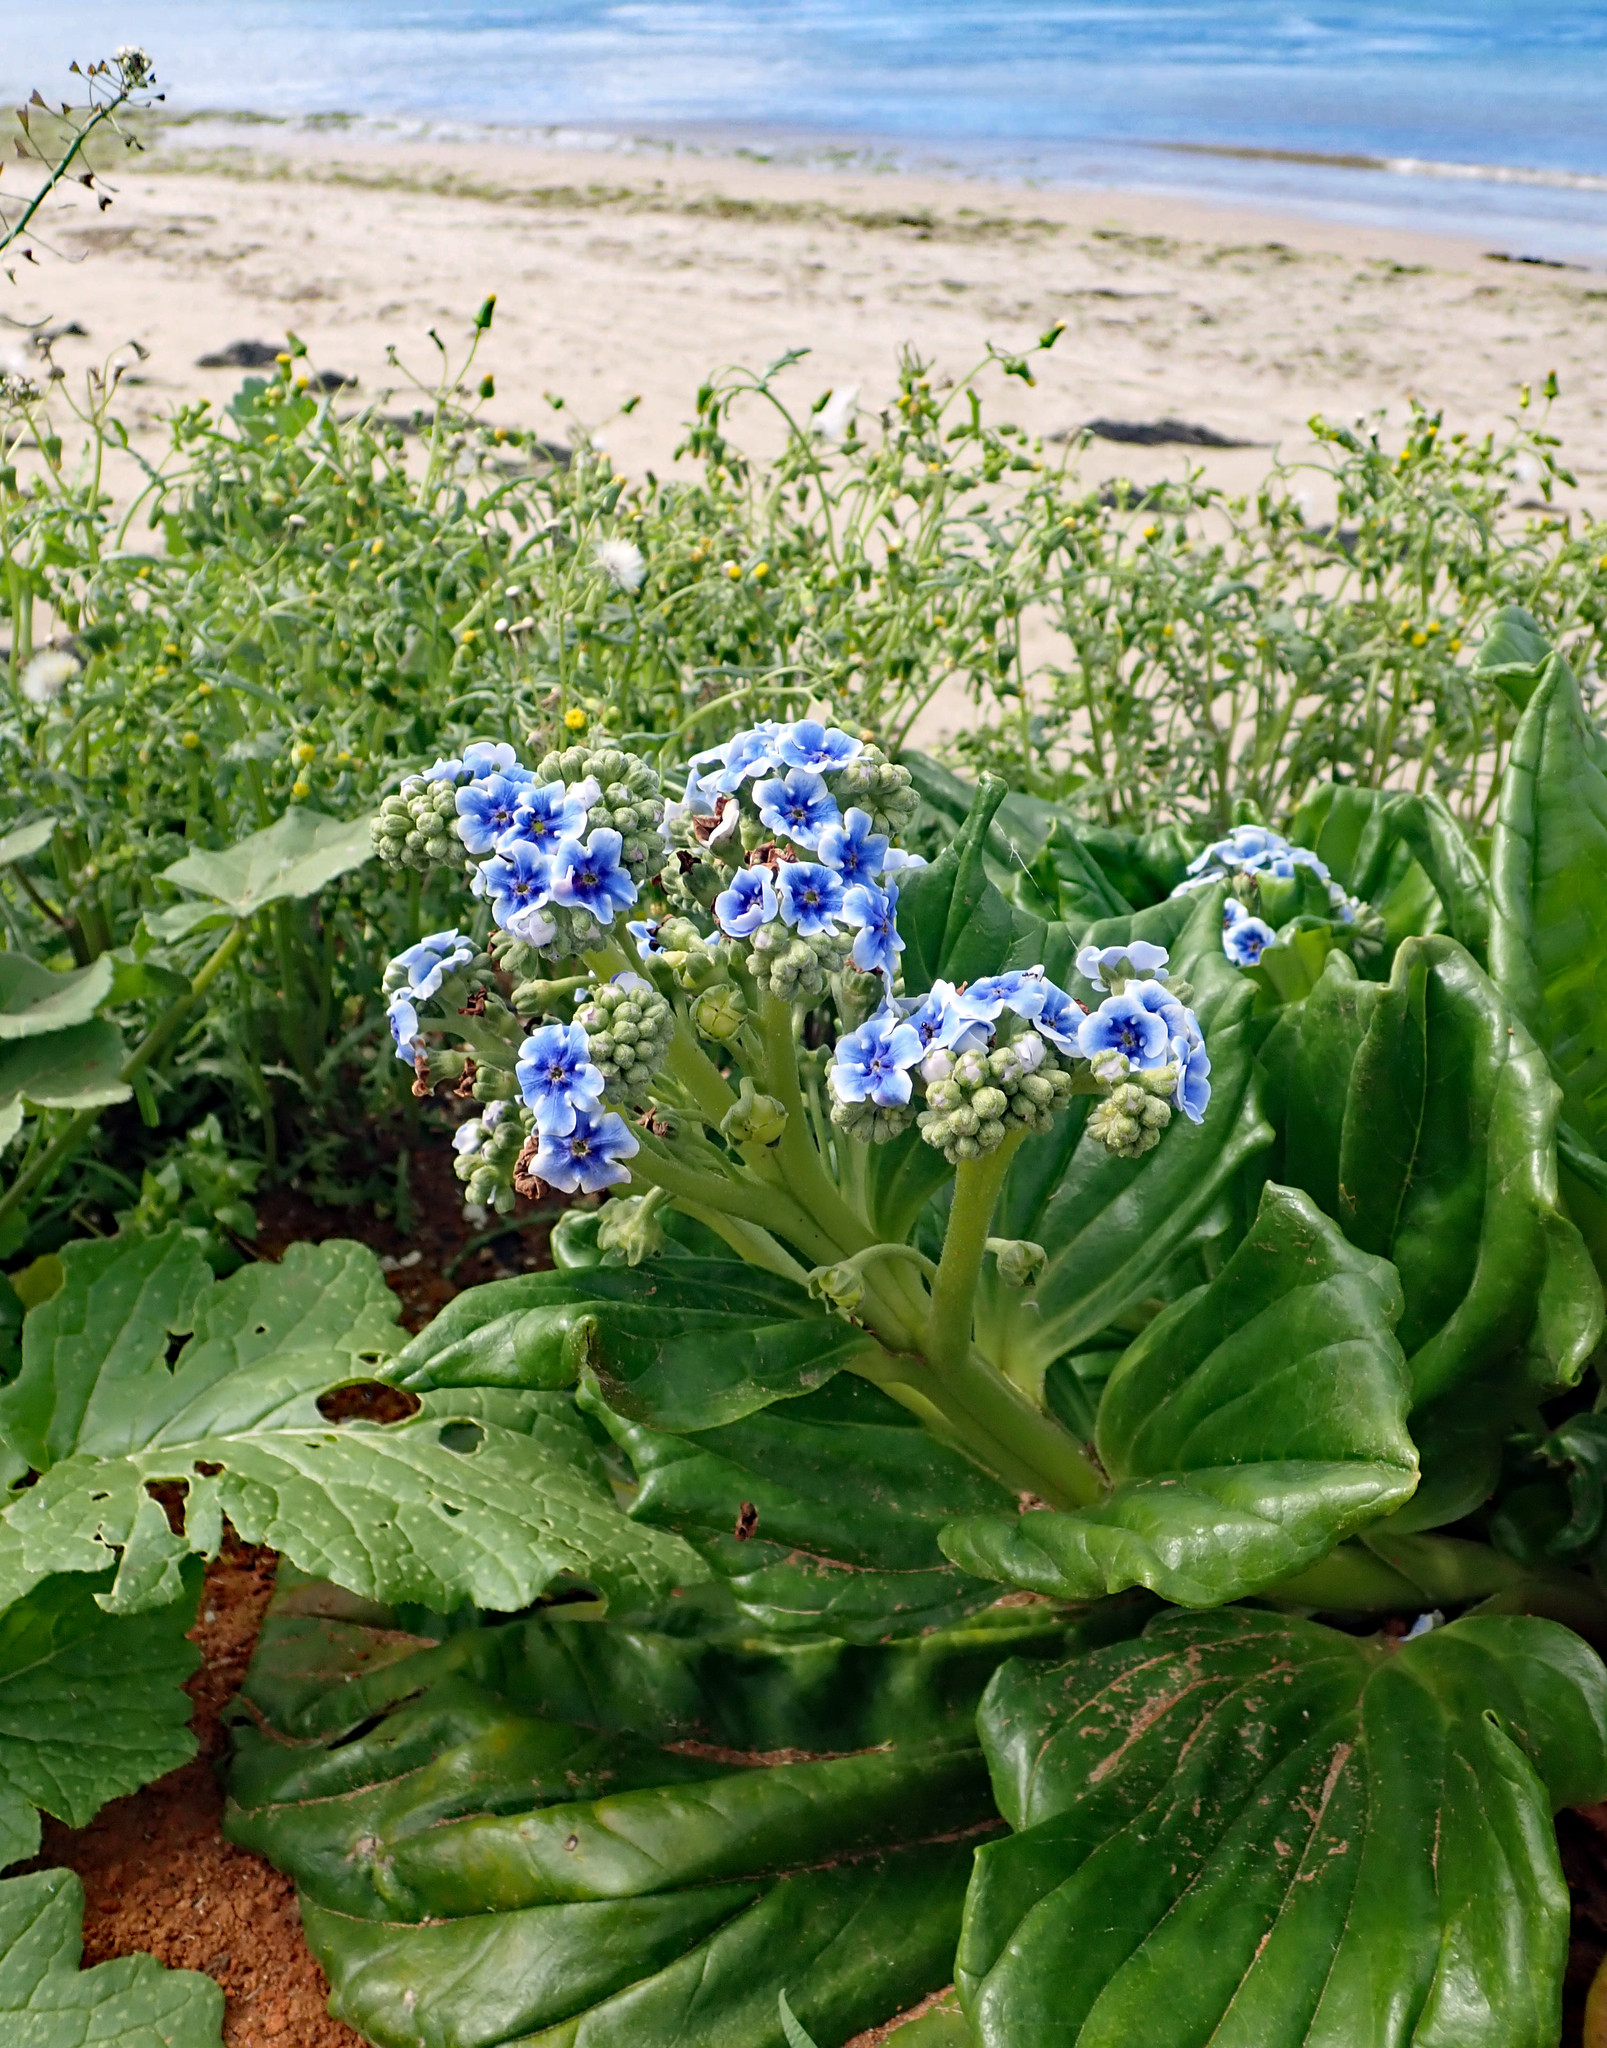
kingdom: Plantae
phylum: Tracheophyta
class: Magnoliopsida
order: Boraginales
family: Boraginaceae
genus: Myosotidium
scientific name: Myosotidium hortensia
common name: Giant forget-me-not
